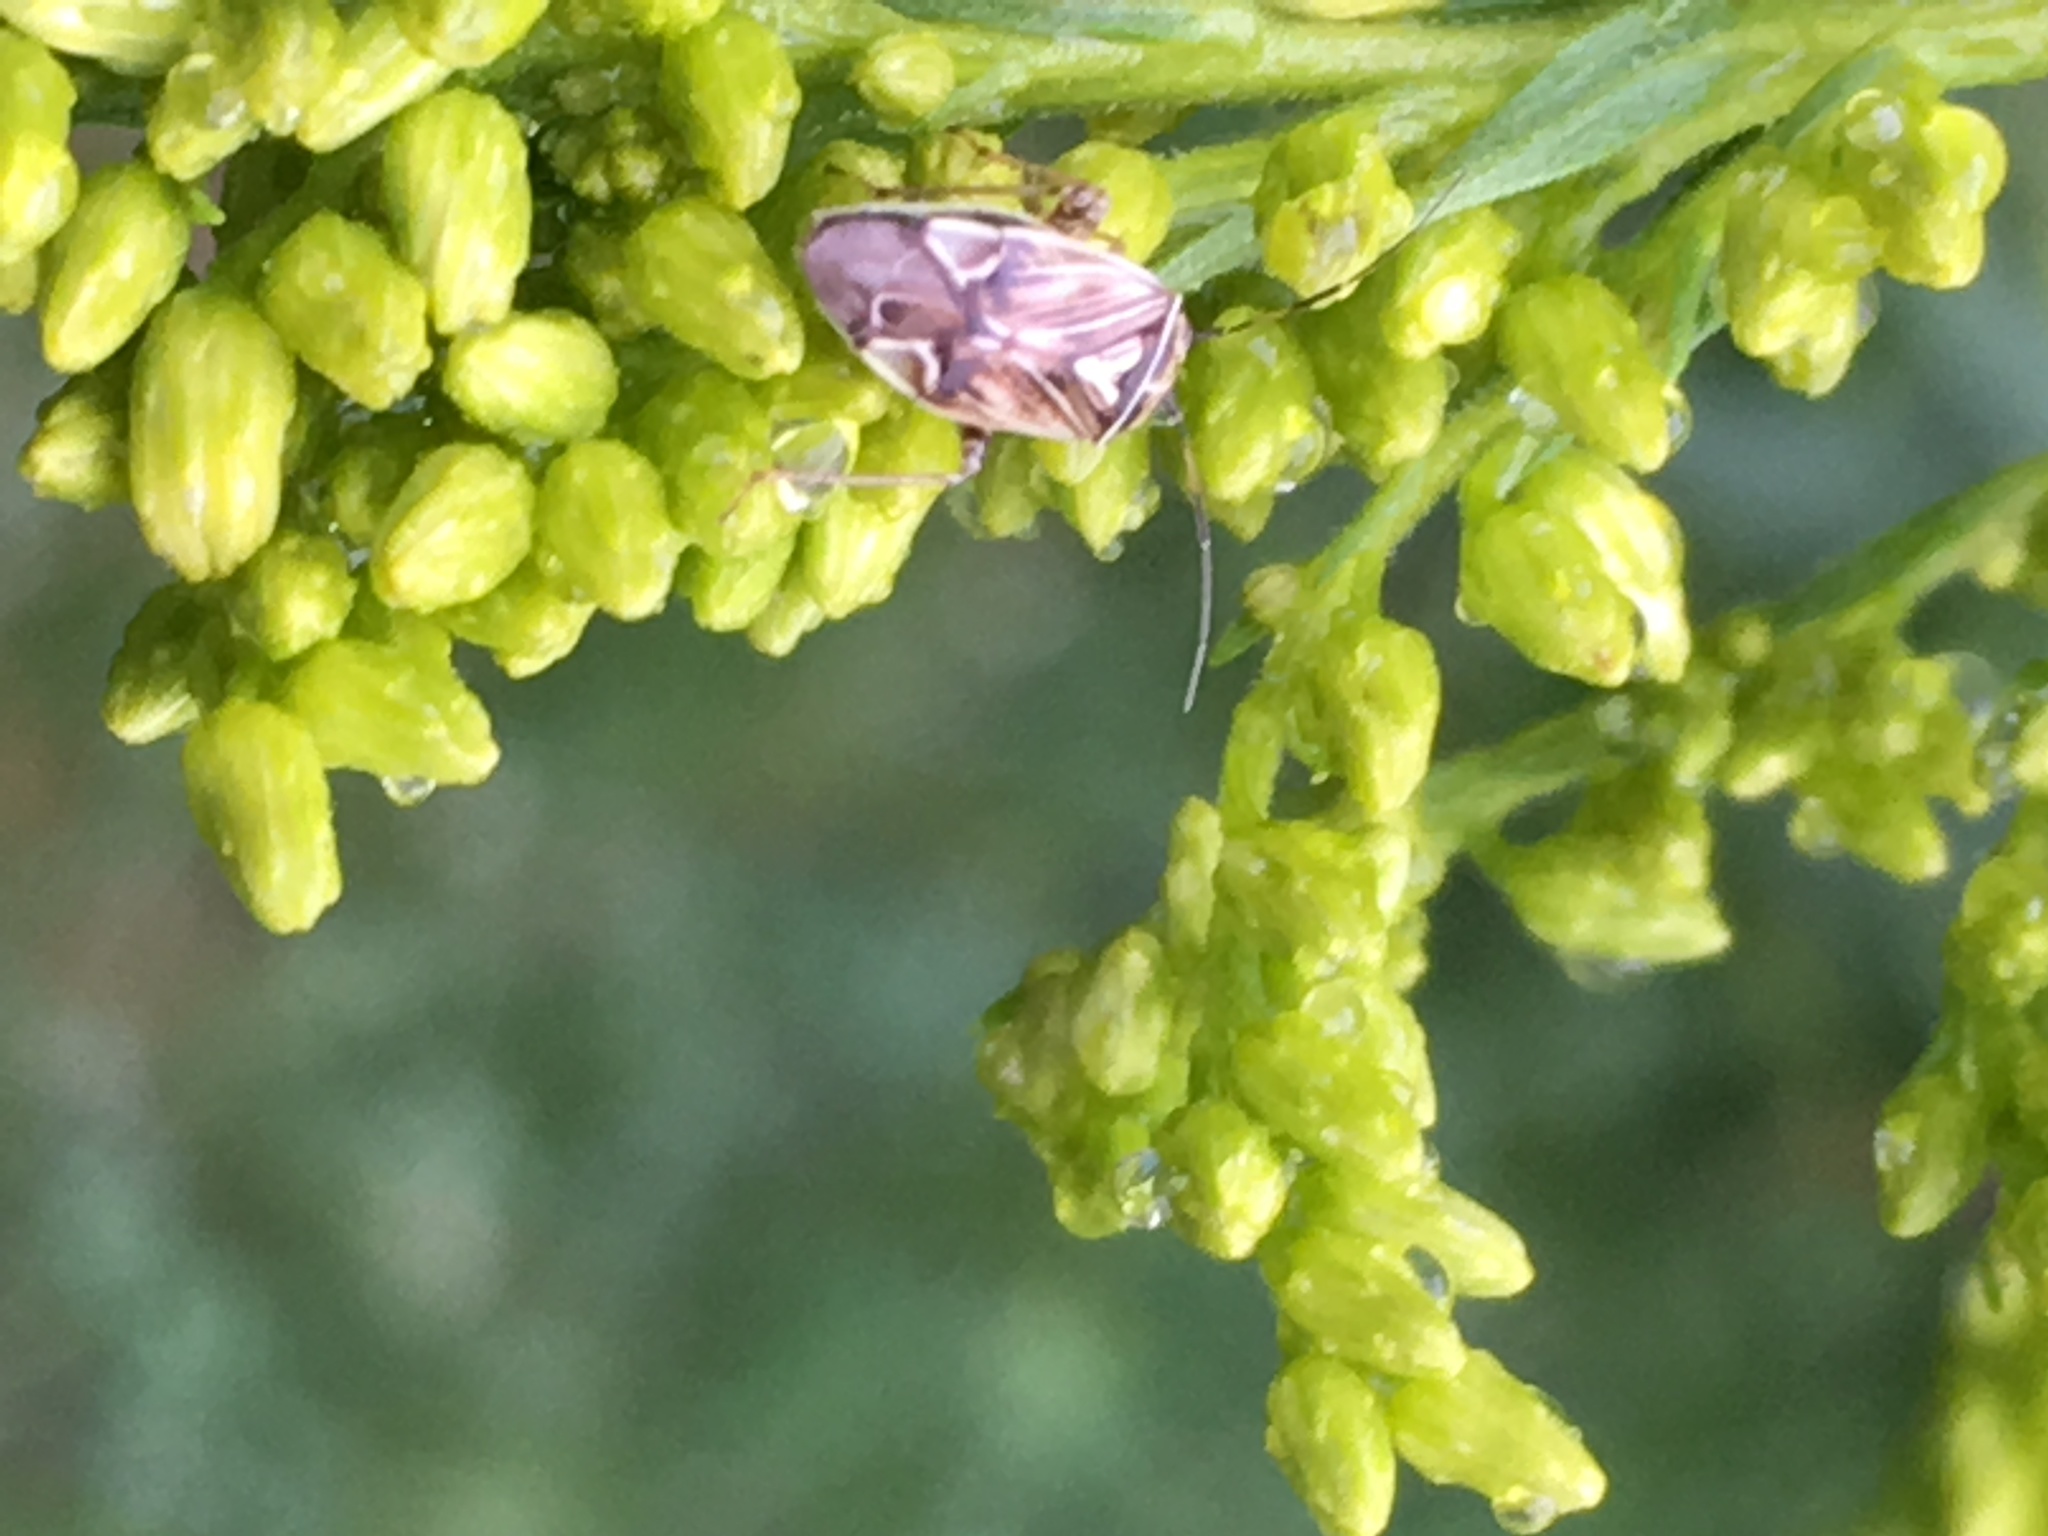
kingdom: Animalia
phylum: Arthropoda
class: Insecta
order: Hemiptera
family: Miridae
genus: Lygus
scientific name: Lygus lineolaris
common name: North american tarnished plant bug
